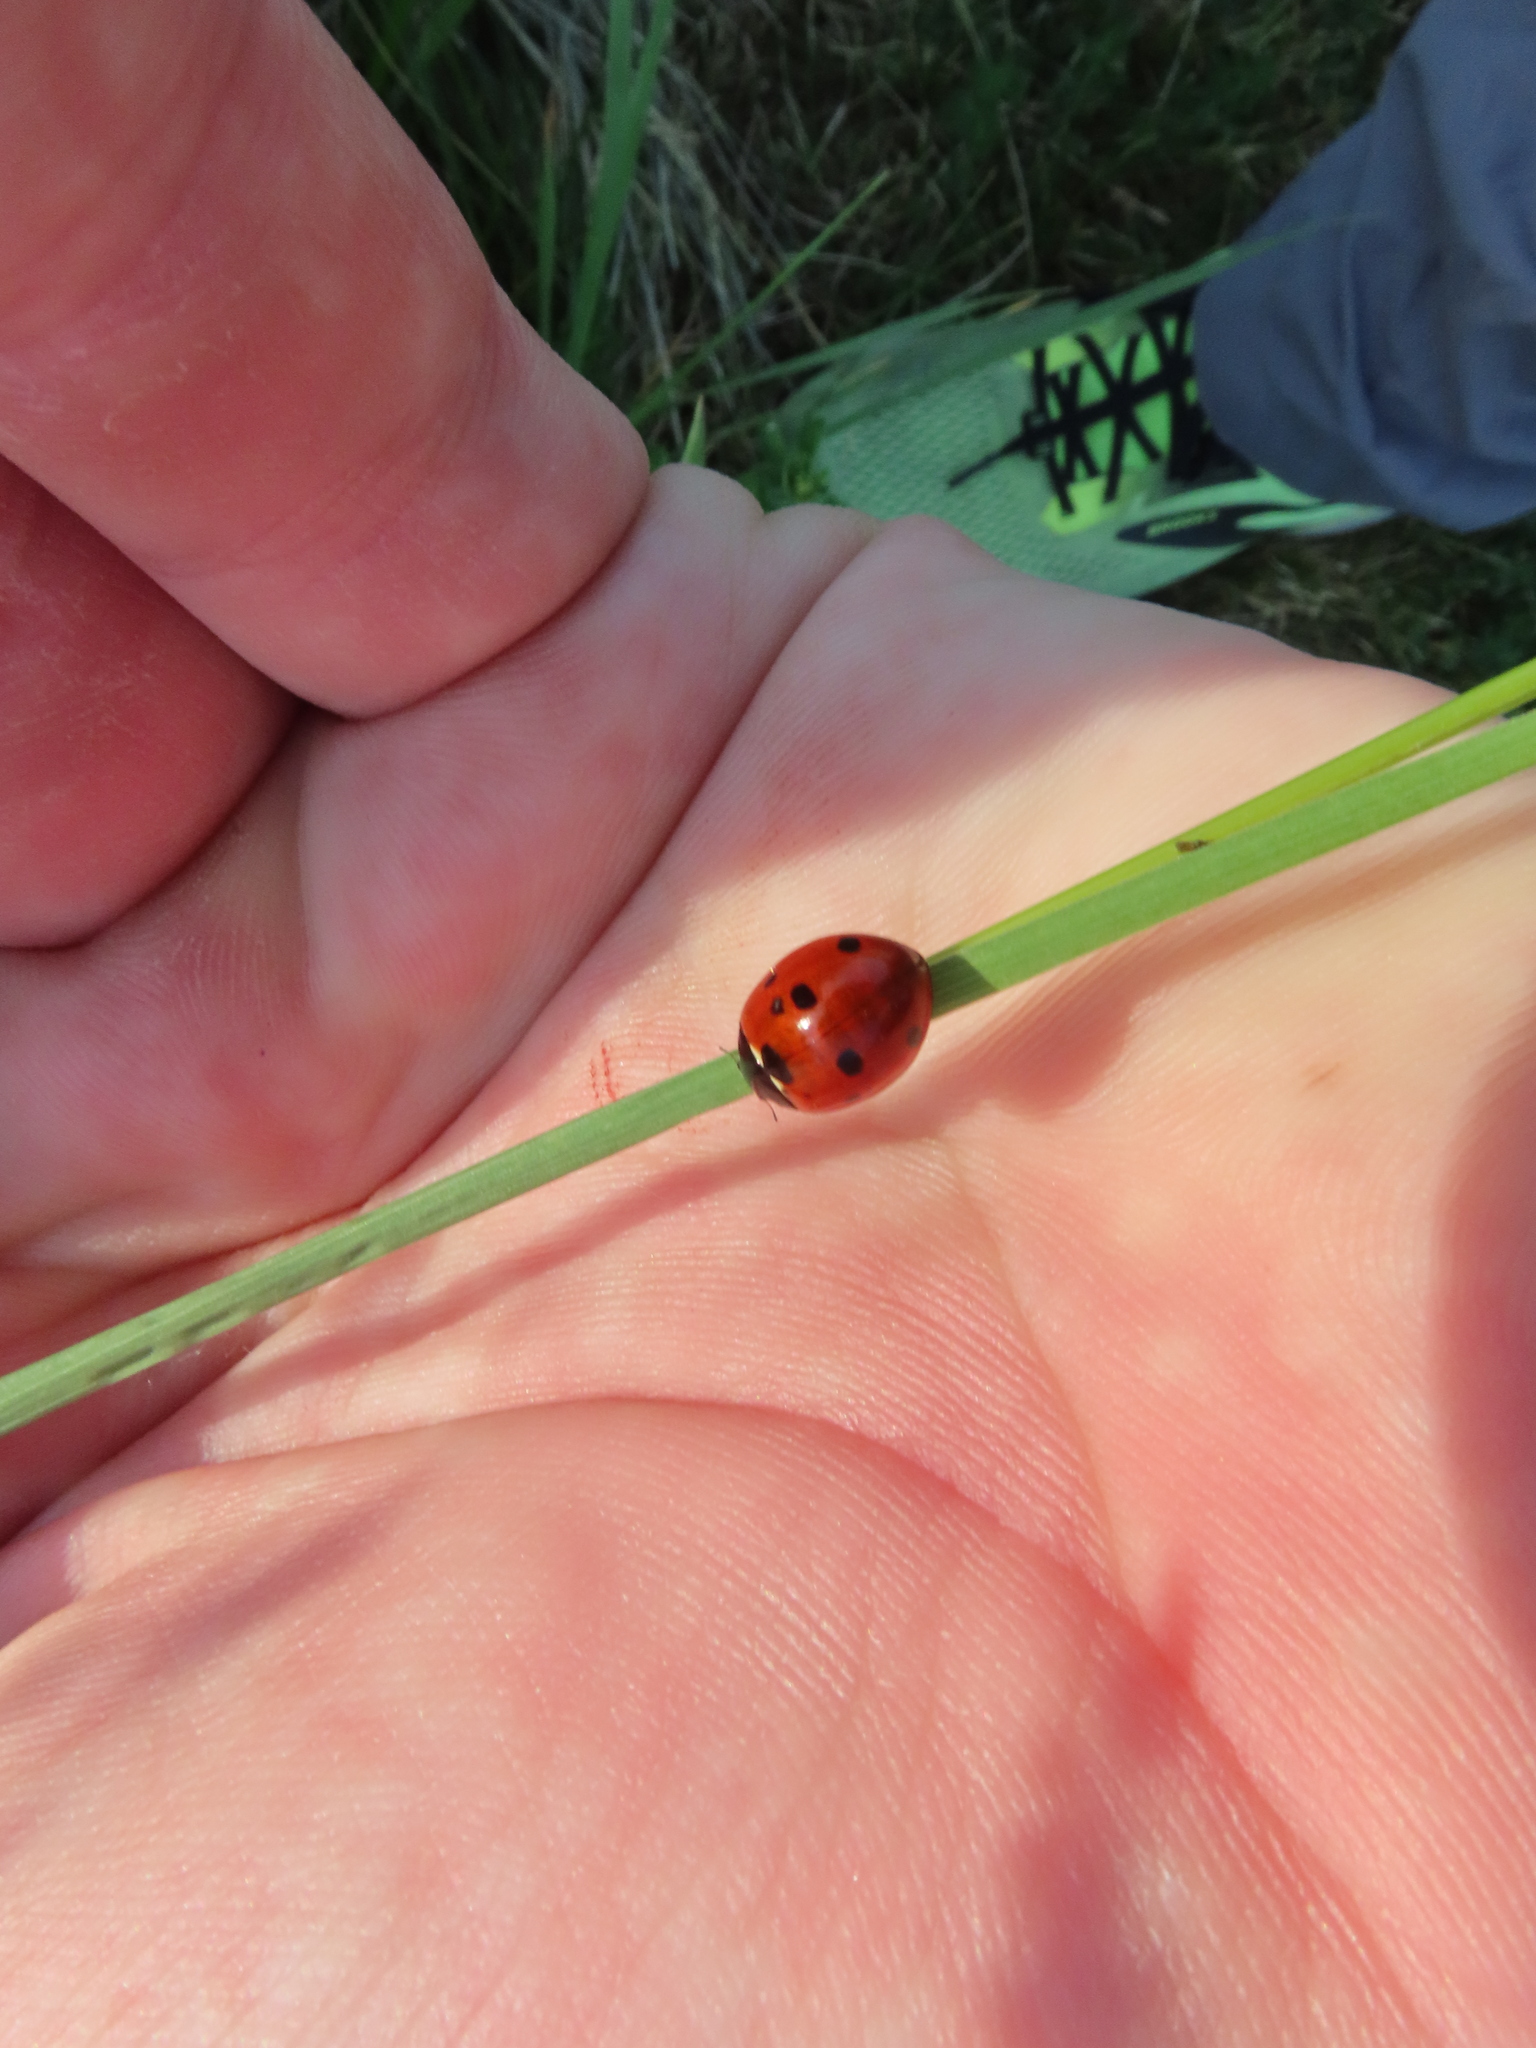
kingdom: Animalia
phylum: Arthropoda
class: Insecta
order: Coleoptera
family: Coccinellidae
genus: Coccinella
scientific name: Coccinella septempunctata
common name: Sevenspotted lady beetle
